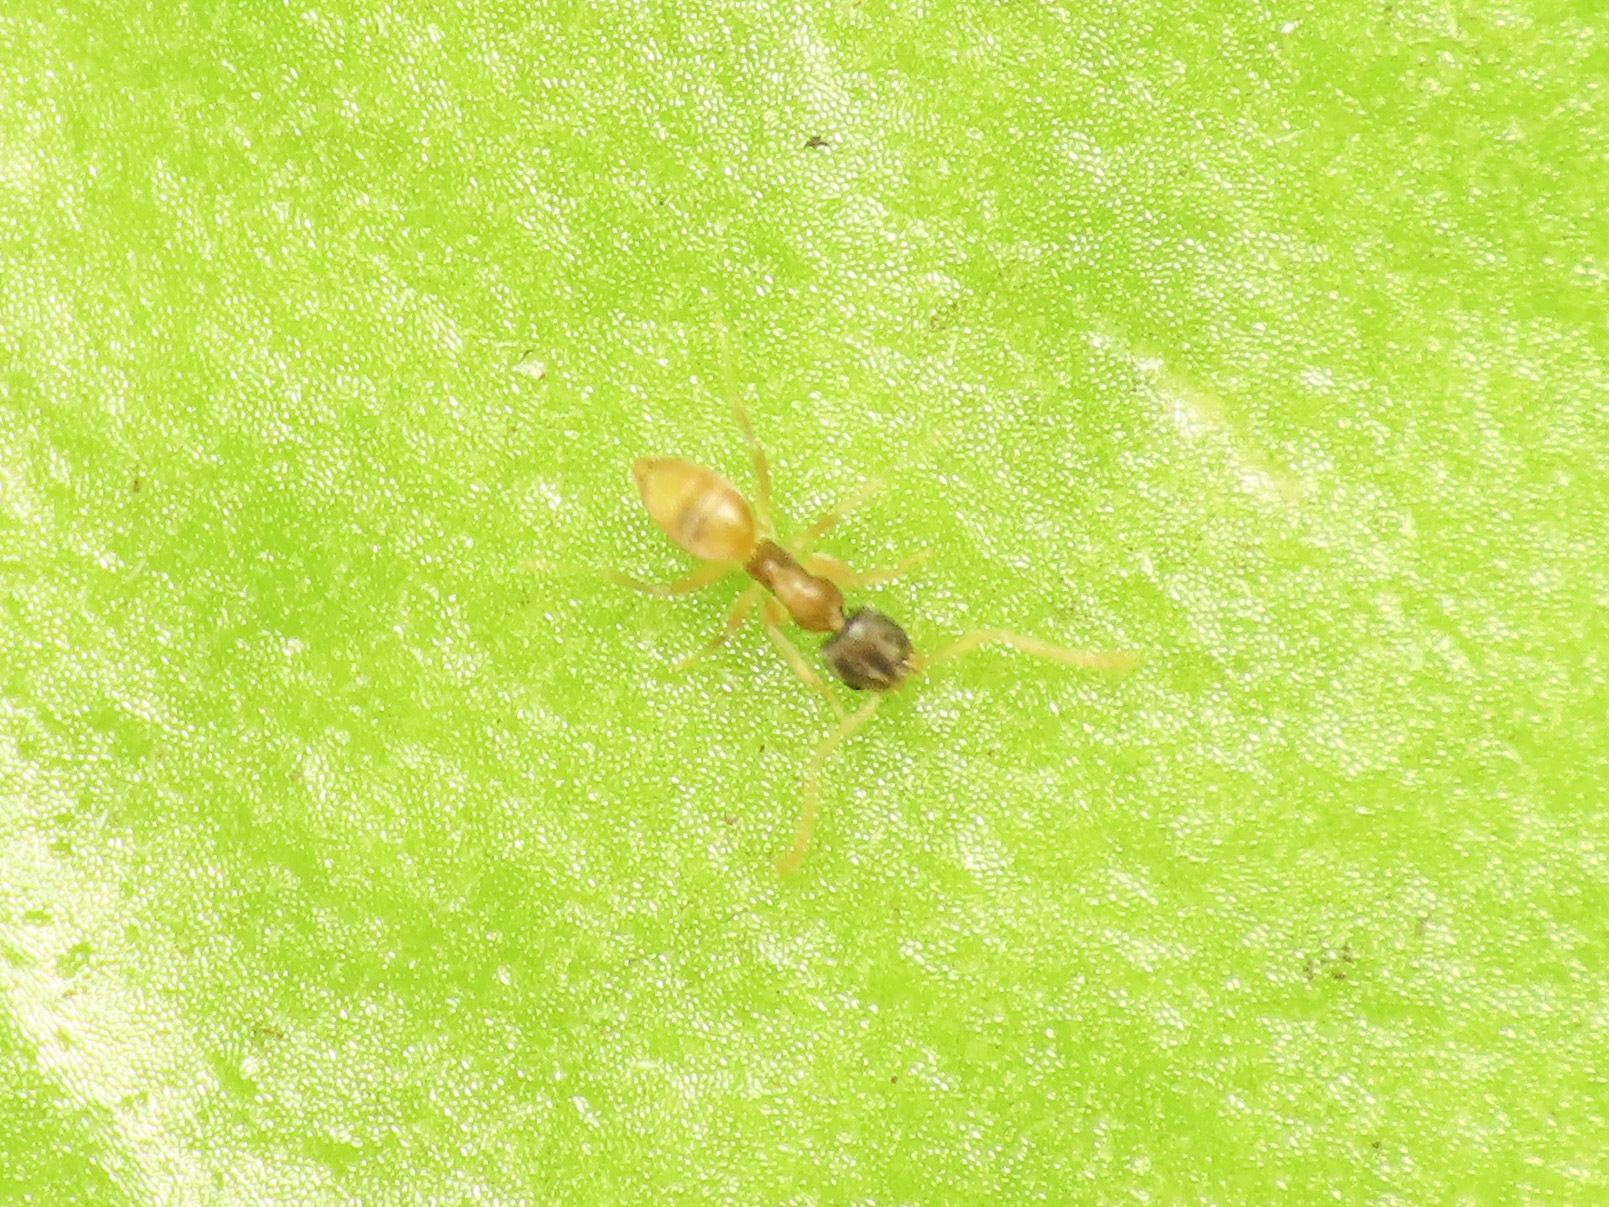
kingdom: Animalia
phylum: Arthropoda
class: Insecta
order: Hymenoptera
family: Formicidae
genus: Tapinoma
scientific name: Tapinoma melanocephalum
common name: Ghost ant
